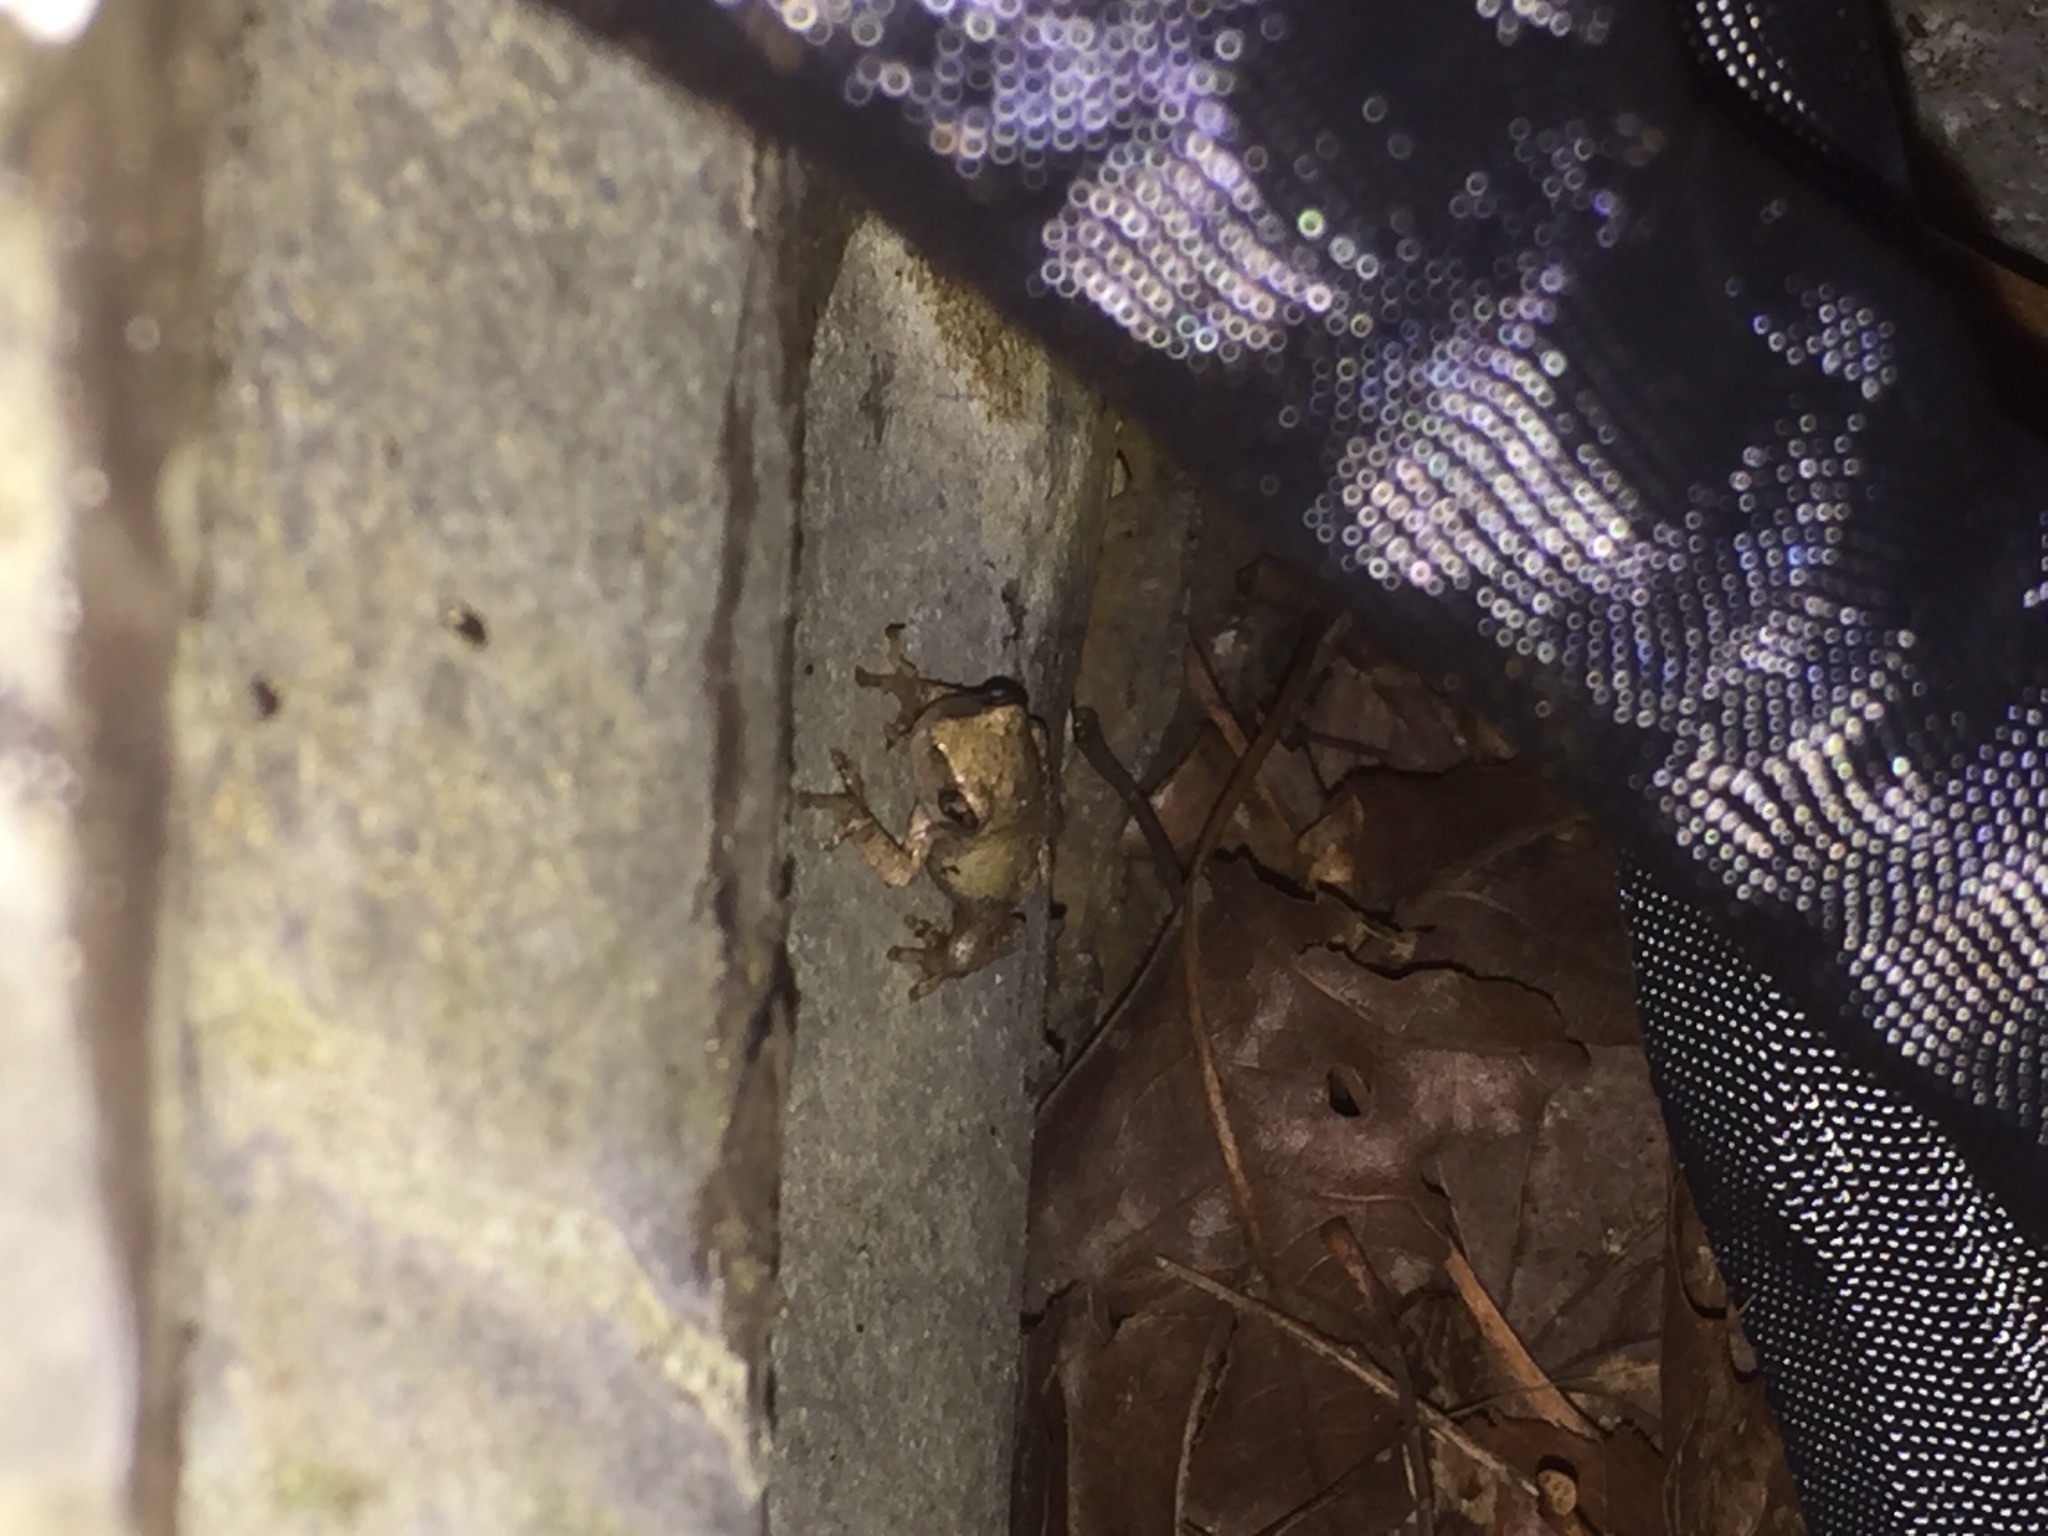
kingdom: Animalia
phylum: Chordata
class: Amphibia
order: Anura
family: Hylidae
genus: Pseudacris
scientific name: Pseudacris crucifer
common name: Spring peeper
